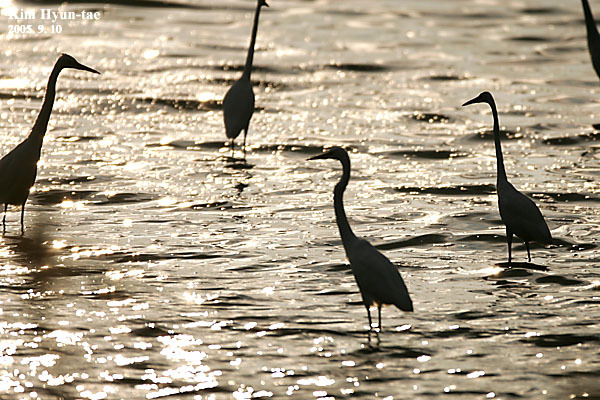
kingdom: Animalia
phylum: Chordata
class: Aves
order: Pelecaniformes
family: Ardeidae
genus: Ardea
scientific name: Ardea alba
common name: Great egret
